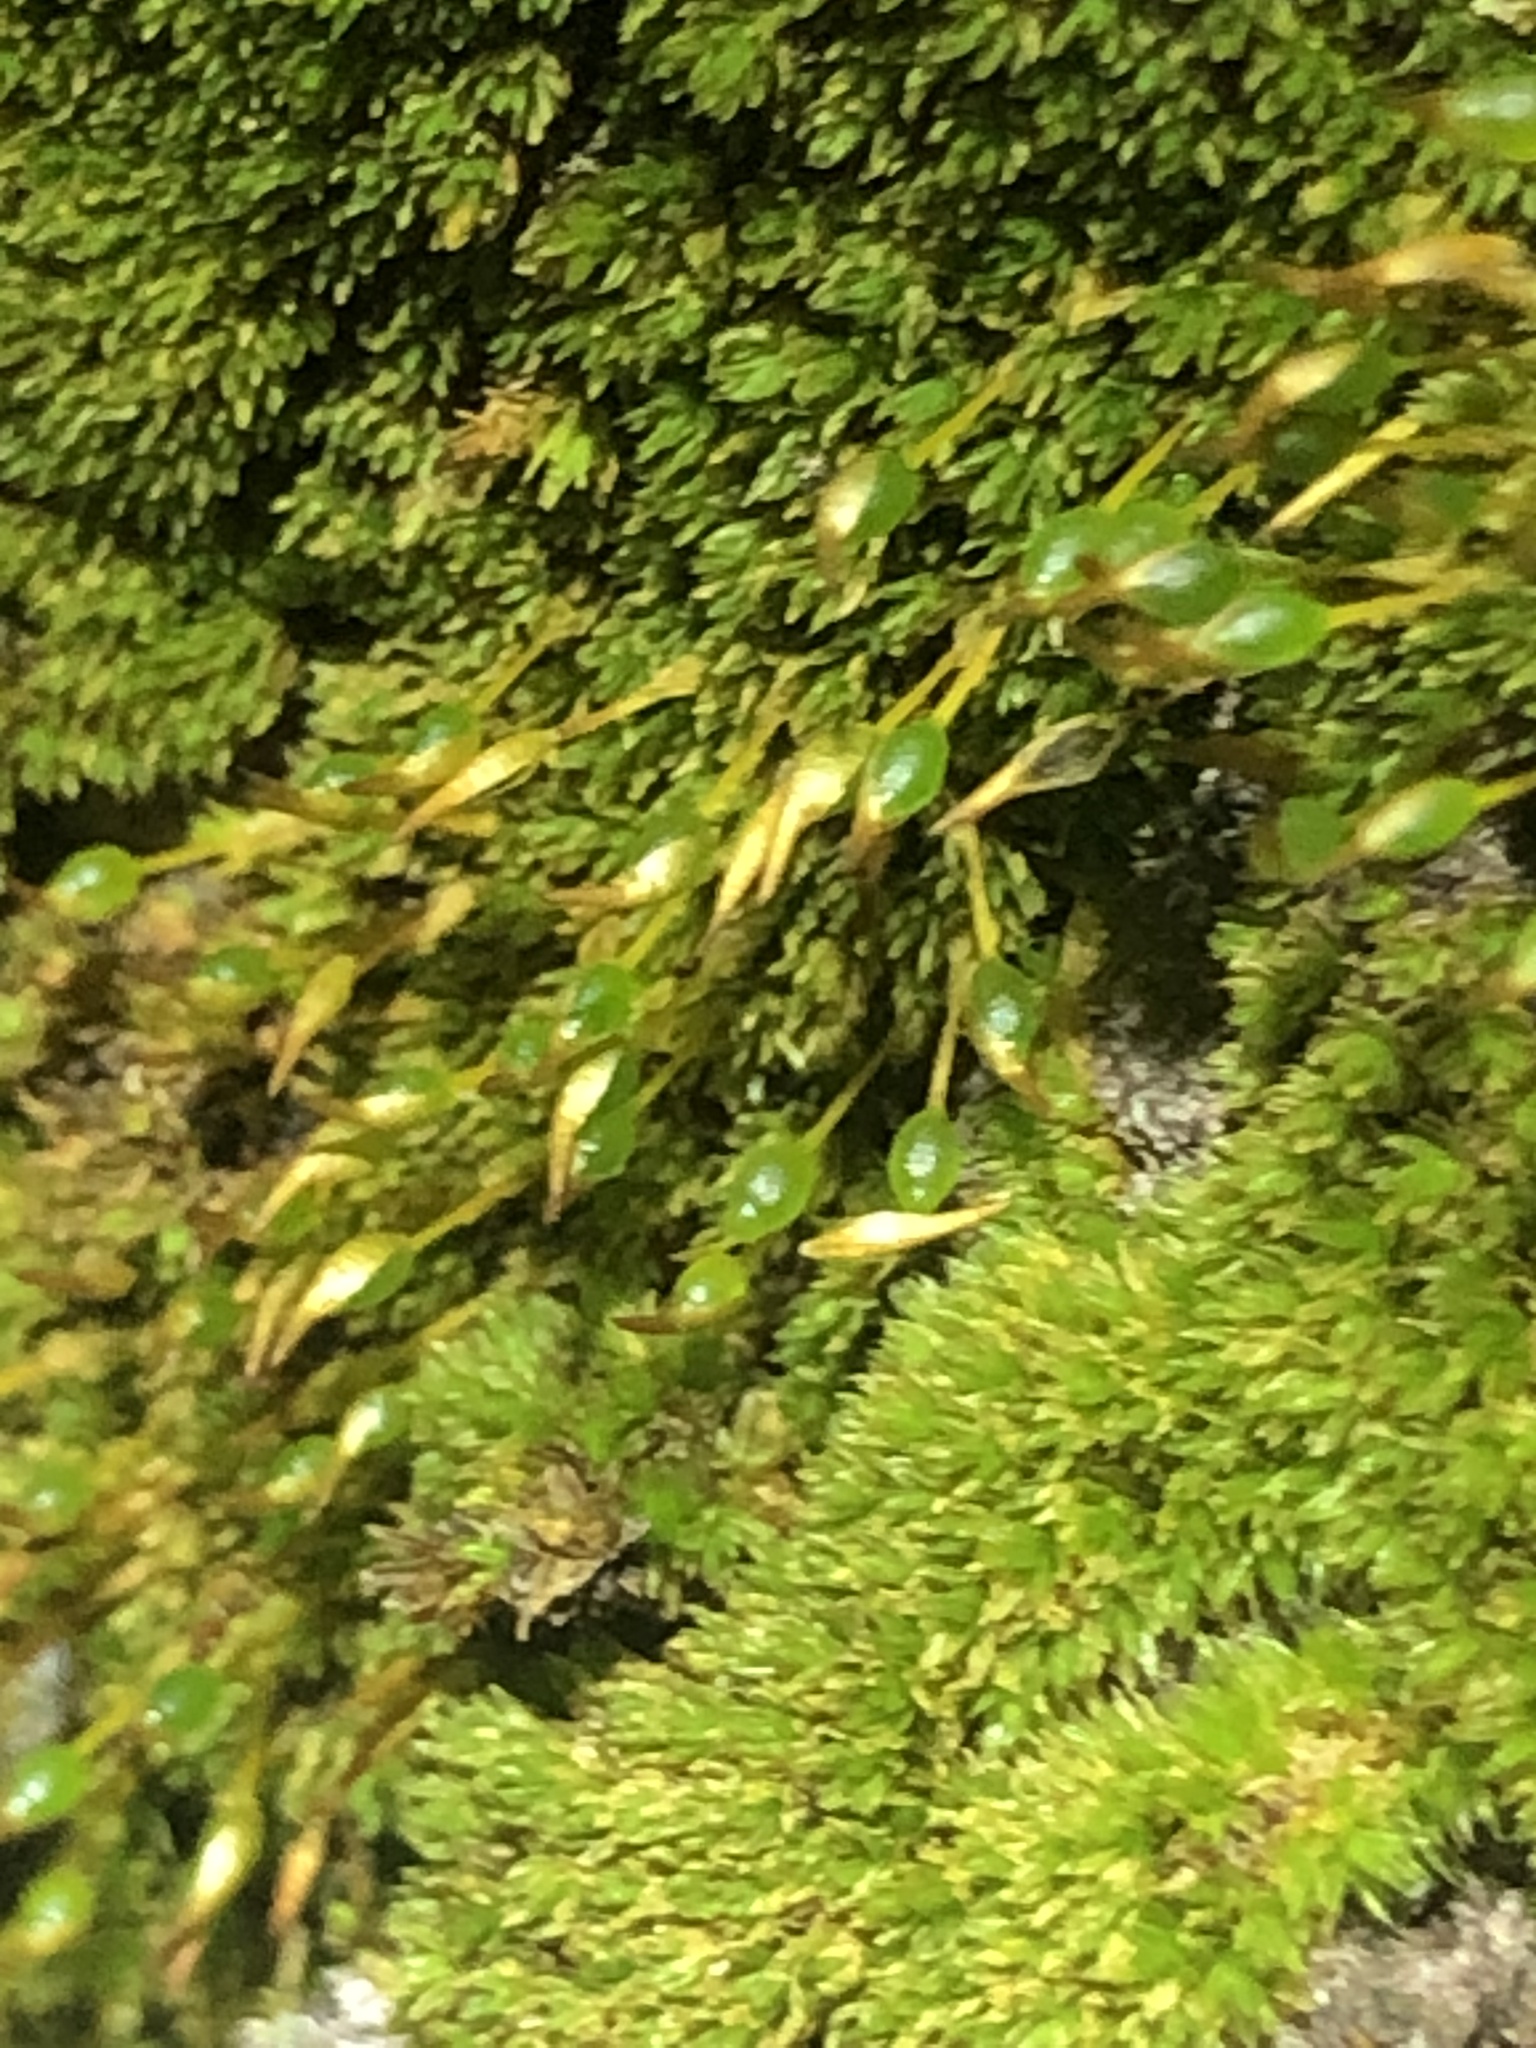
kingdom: Plantae
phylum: Bryophyta
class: Bryopsida
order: Funariales
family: Funariaceae
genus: Physcomitrium
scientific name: Physcomitrium pyriforme
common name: Common bladder-moss
